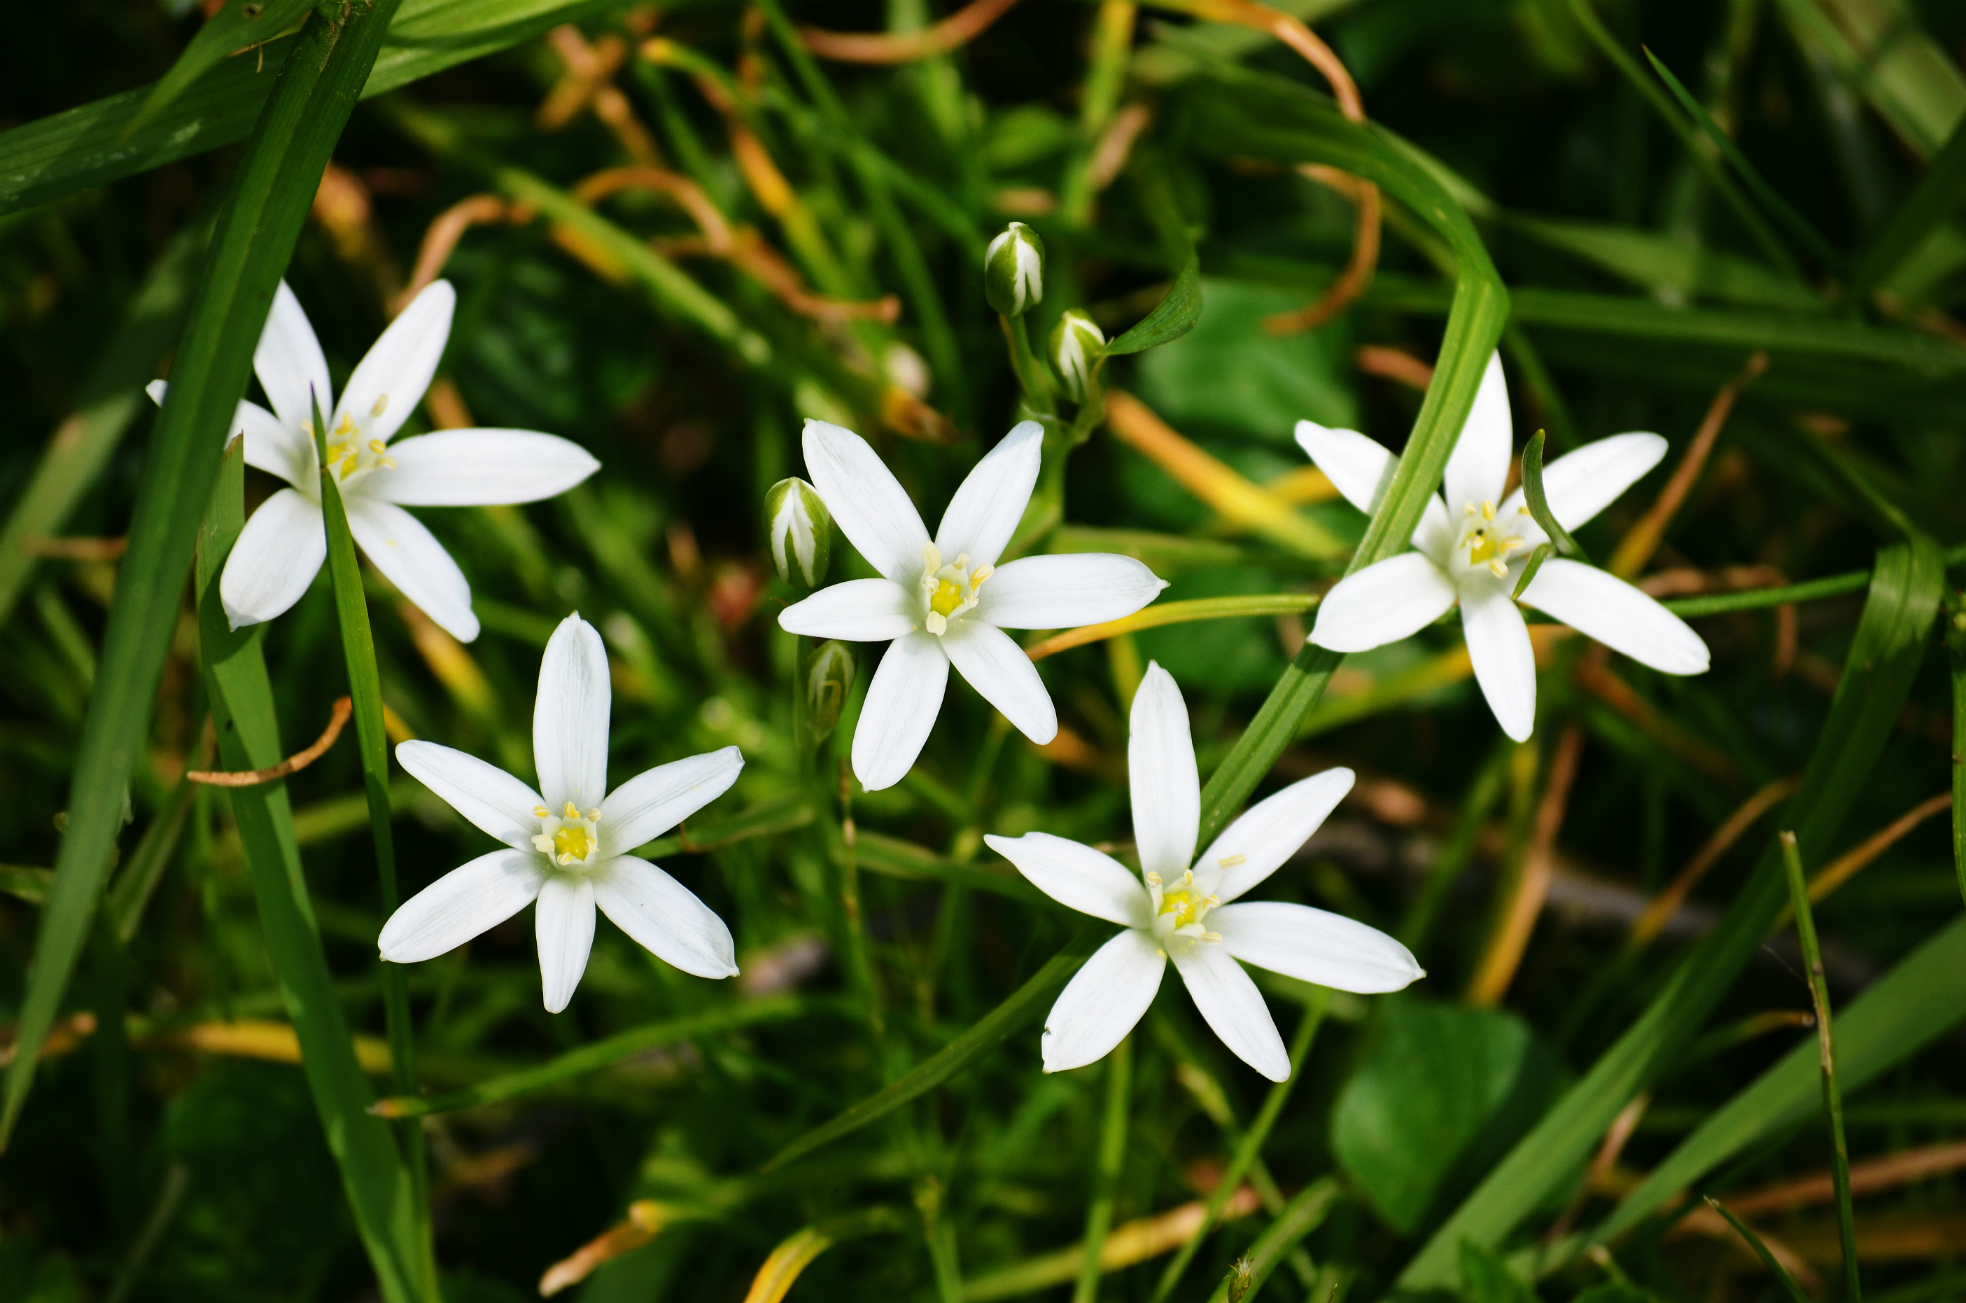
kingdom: Plantae
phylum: Tracheophyta
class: Liliopsida
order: Asparagales
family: Asparagaceae
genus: Ornithogalum
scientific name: Ornithogalum umbellatum
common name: Garden star-of-bethlehem
